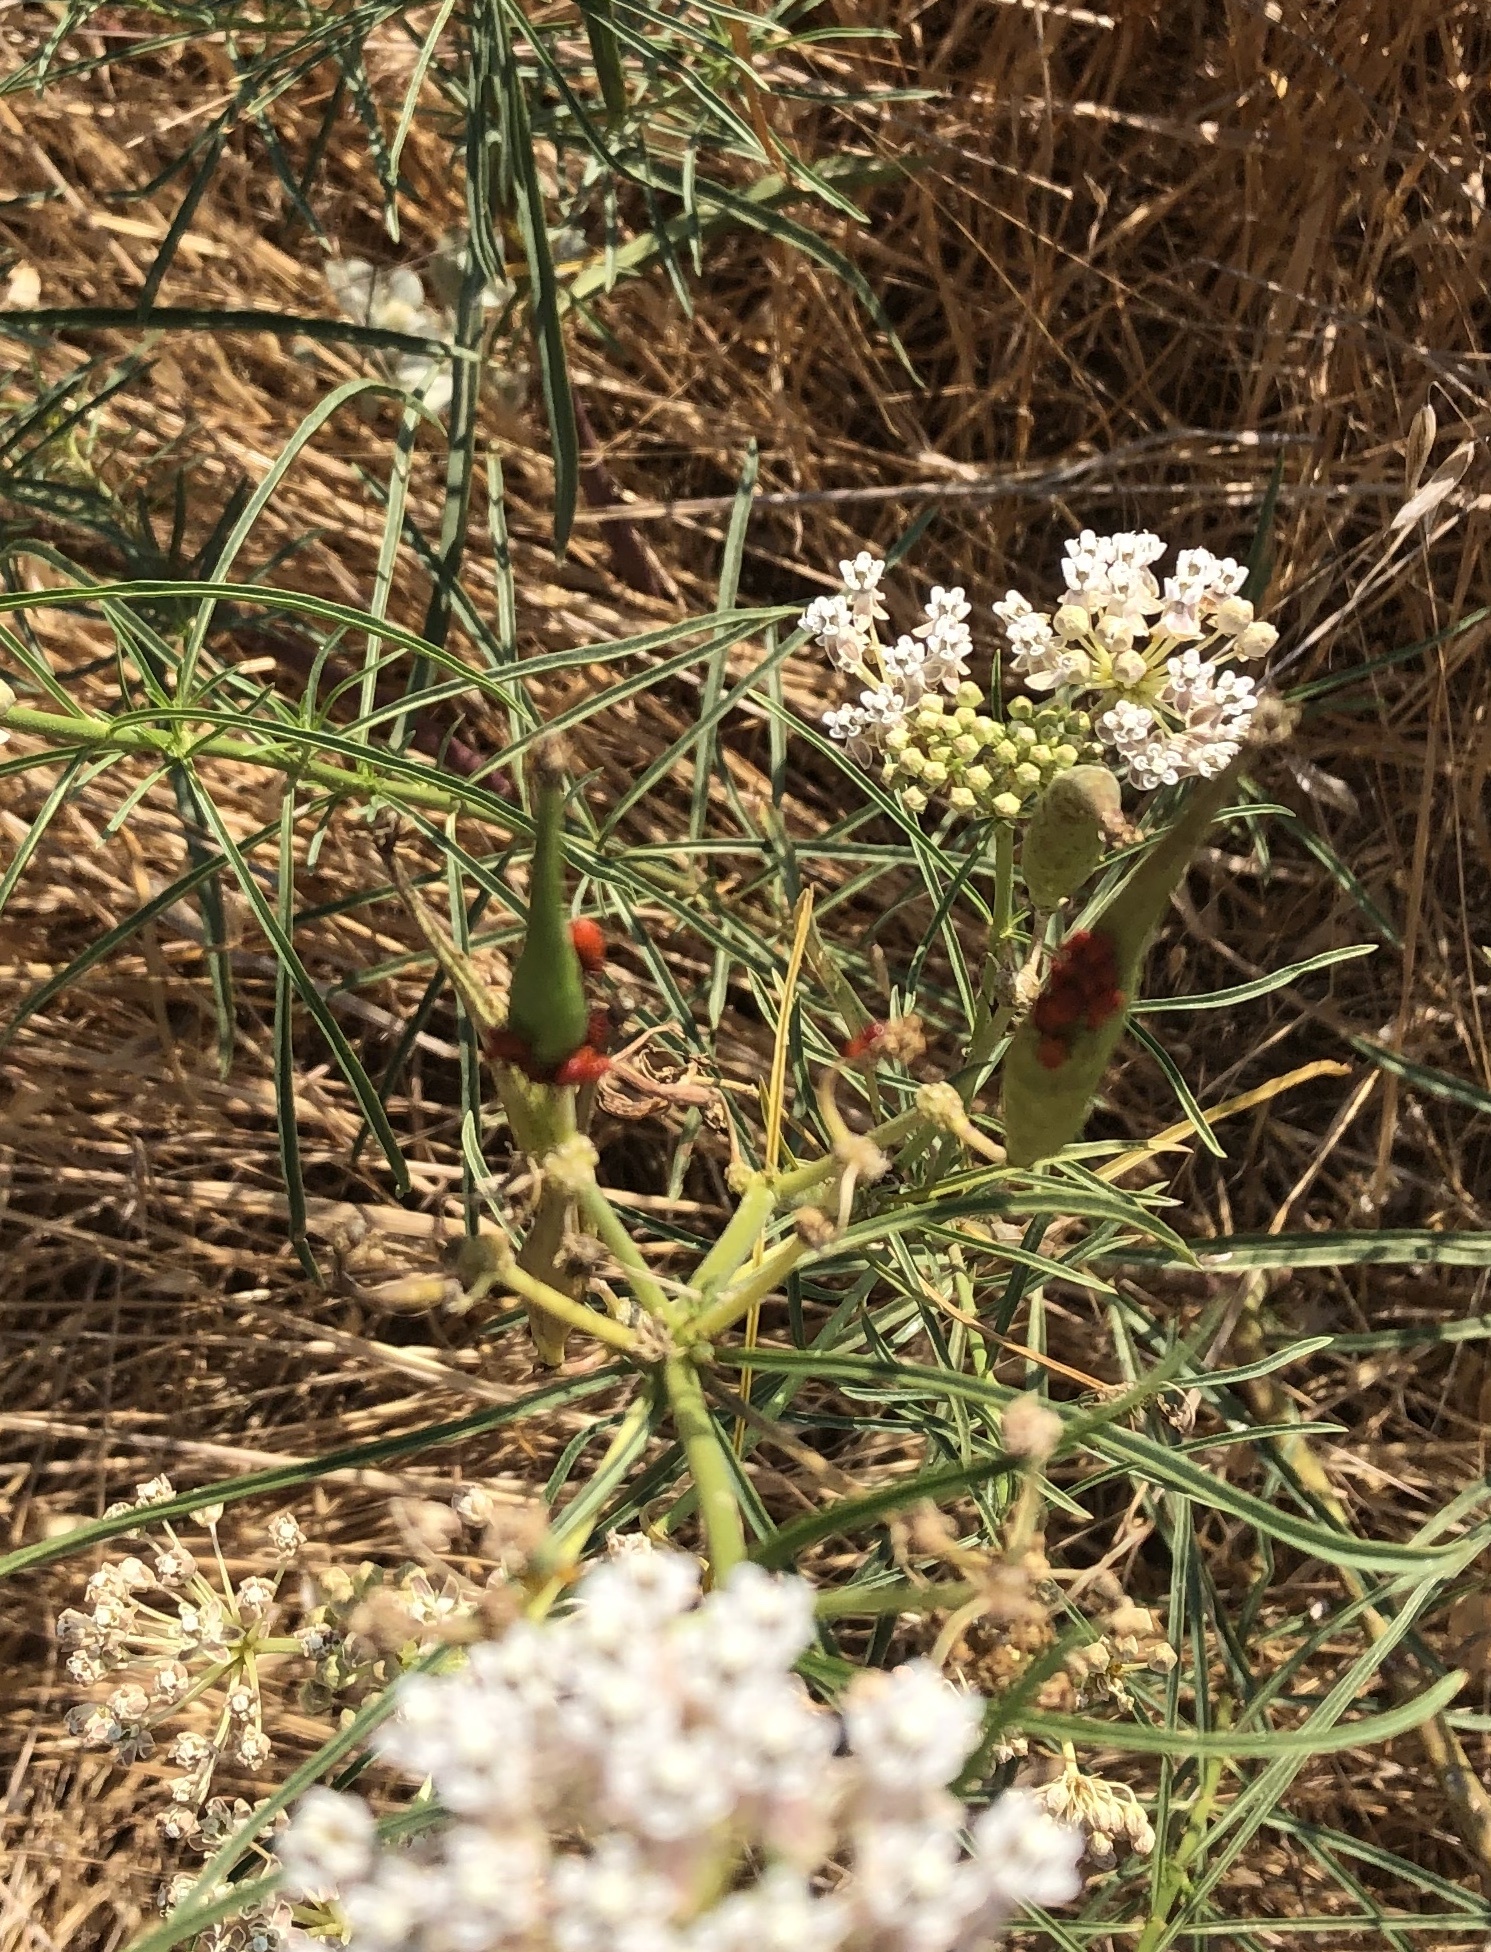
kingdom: Animalia
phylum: Arthropoda
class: Insecta
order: Hemiptera
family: Lygaeidae
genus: Oncopeltus
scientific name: Oncopeltus fasciatus
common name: Large milkweed bug
